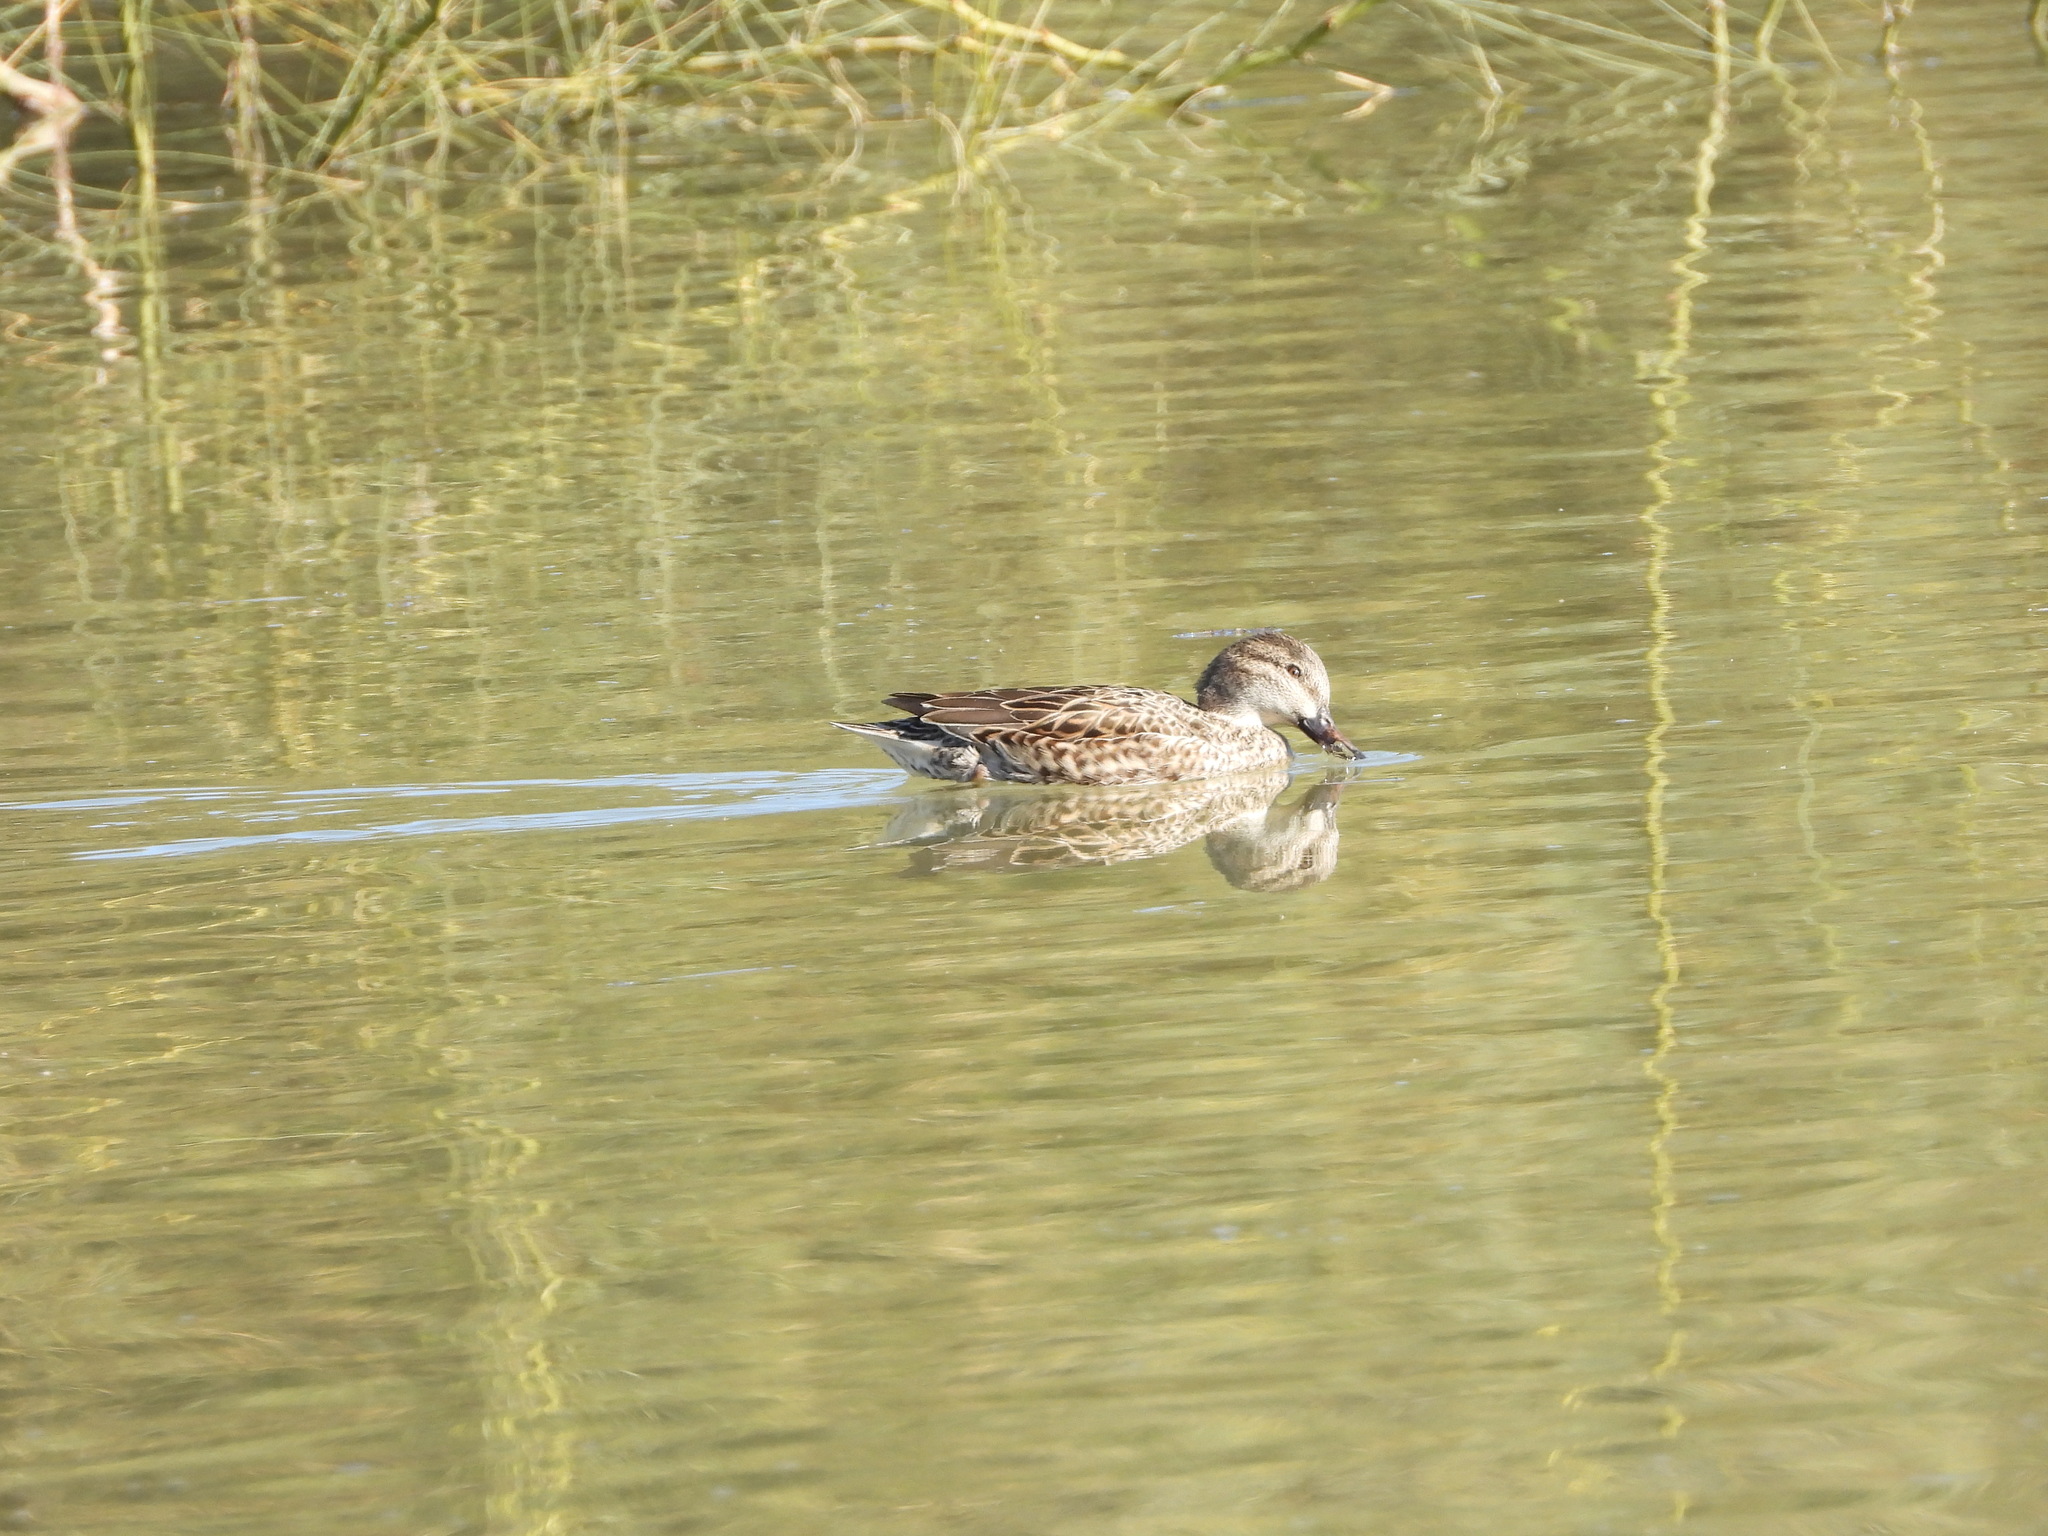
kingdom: Animalia
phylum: Chordata
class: Aves
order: Anseriformes
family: Anatidae
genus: Anas
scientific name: Anas crecca
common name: Eurasian teal
